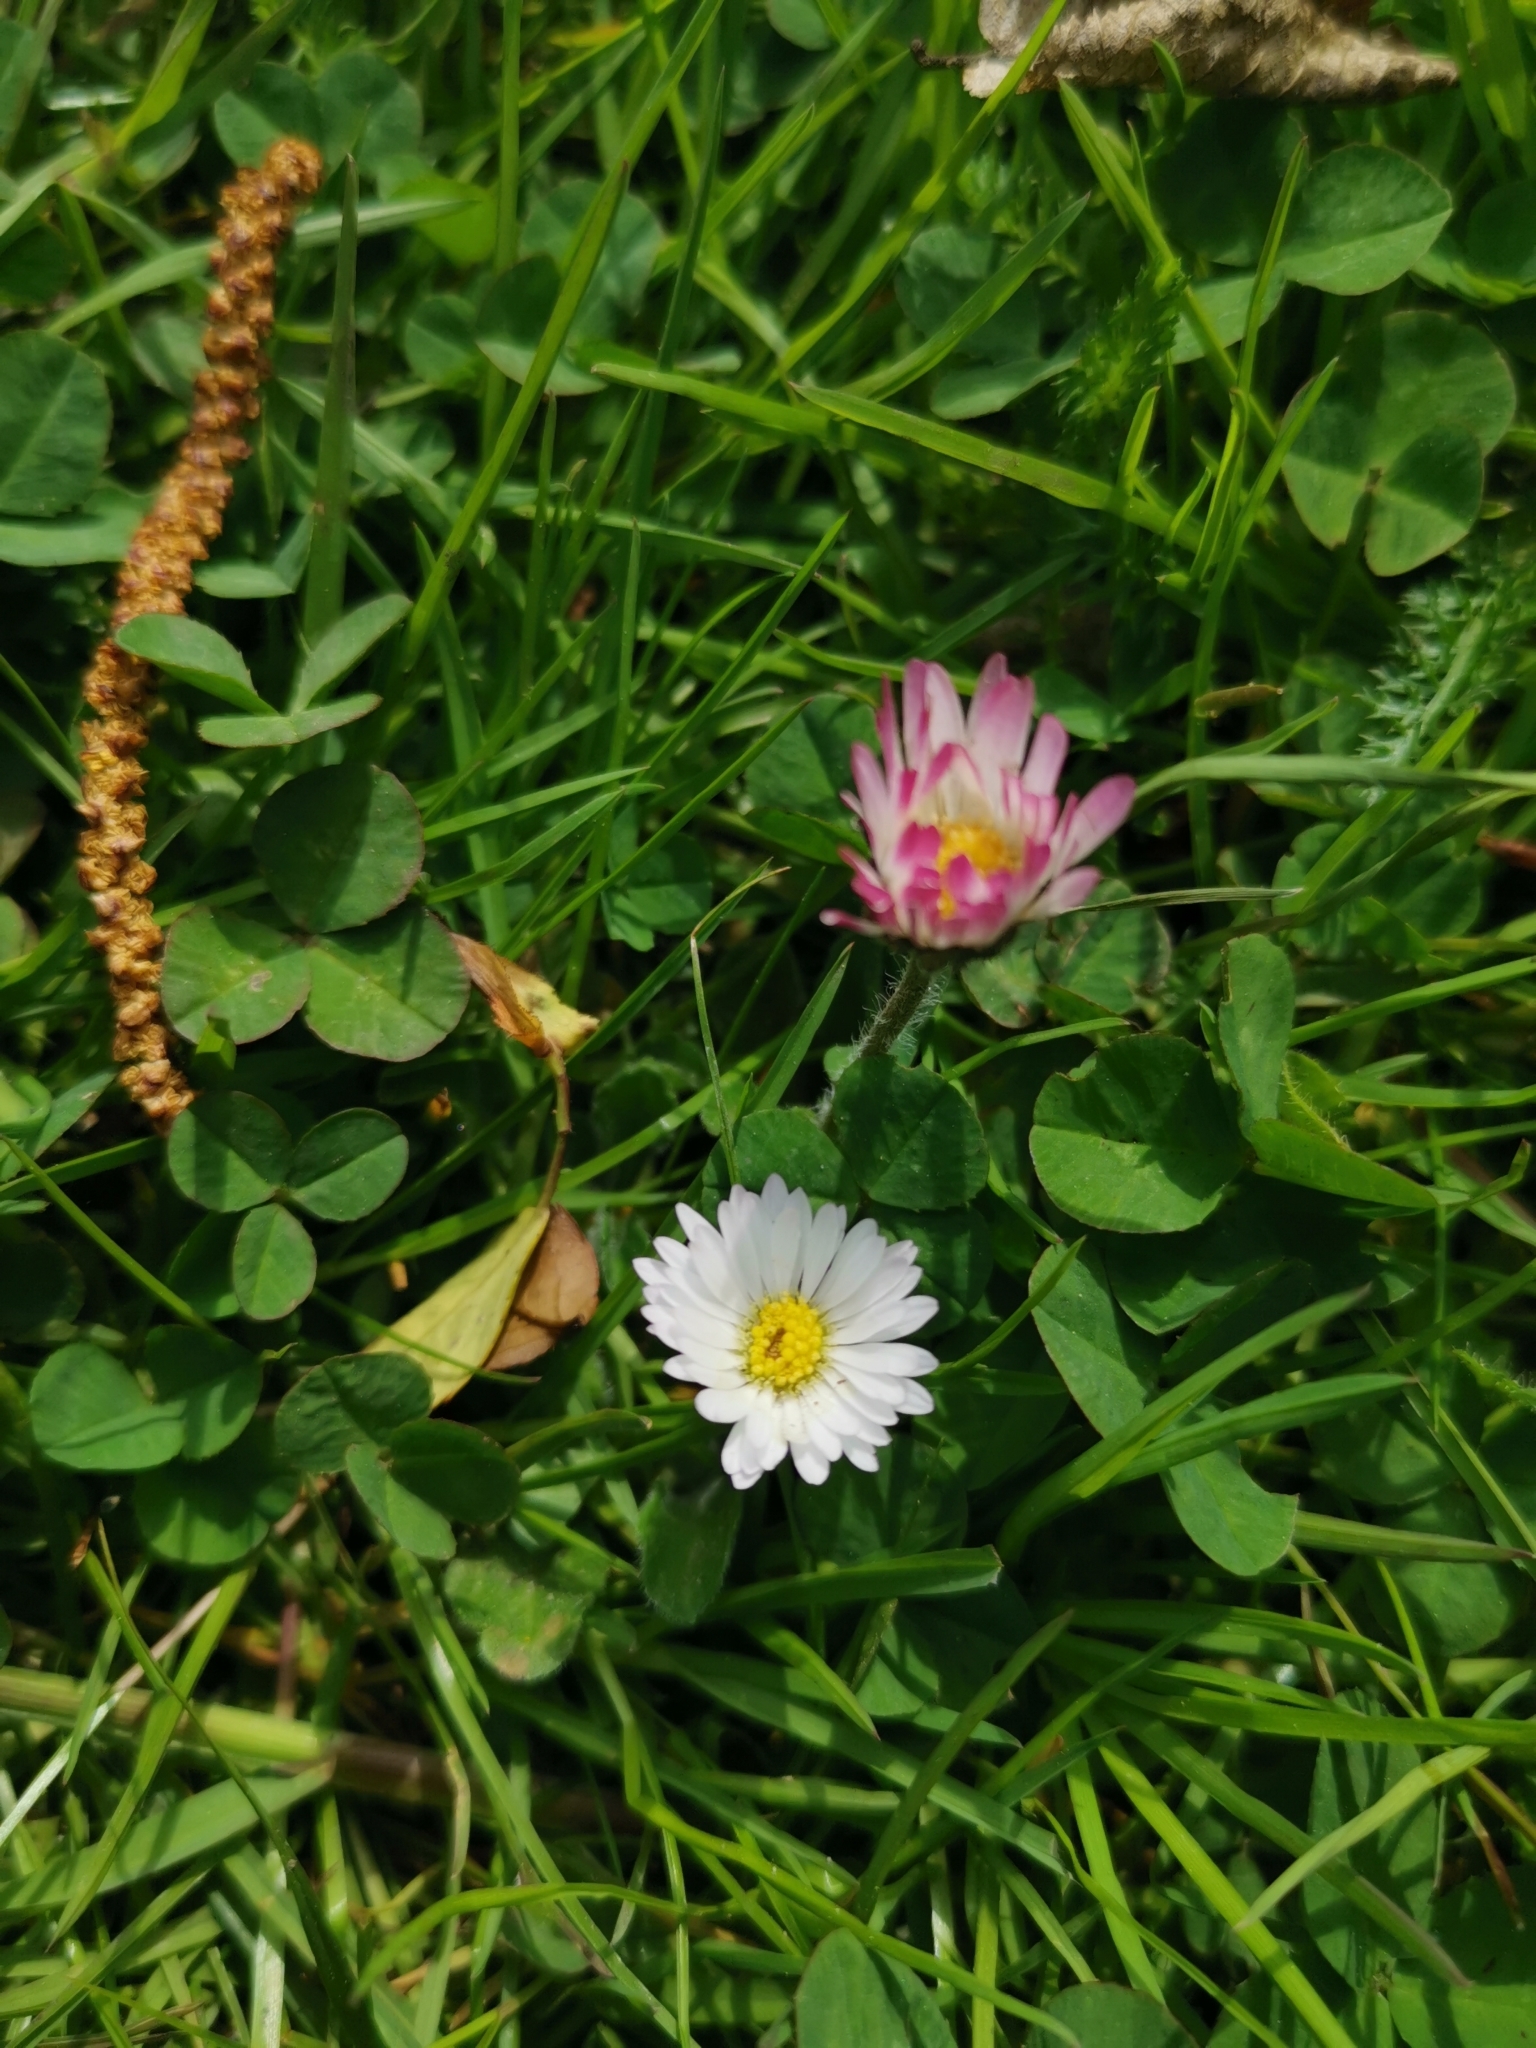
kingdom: Plantae
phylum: Tracheophyta
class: Magnoliopsida
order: Asterales
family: Asteraceae
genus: Bellis
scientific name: Bellis perennis
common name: Lawndaisy
